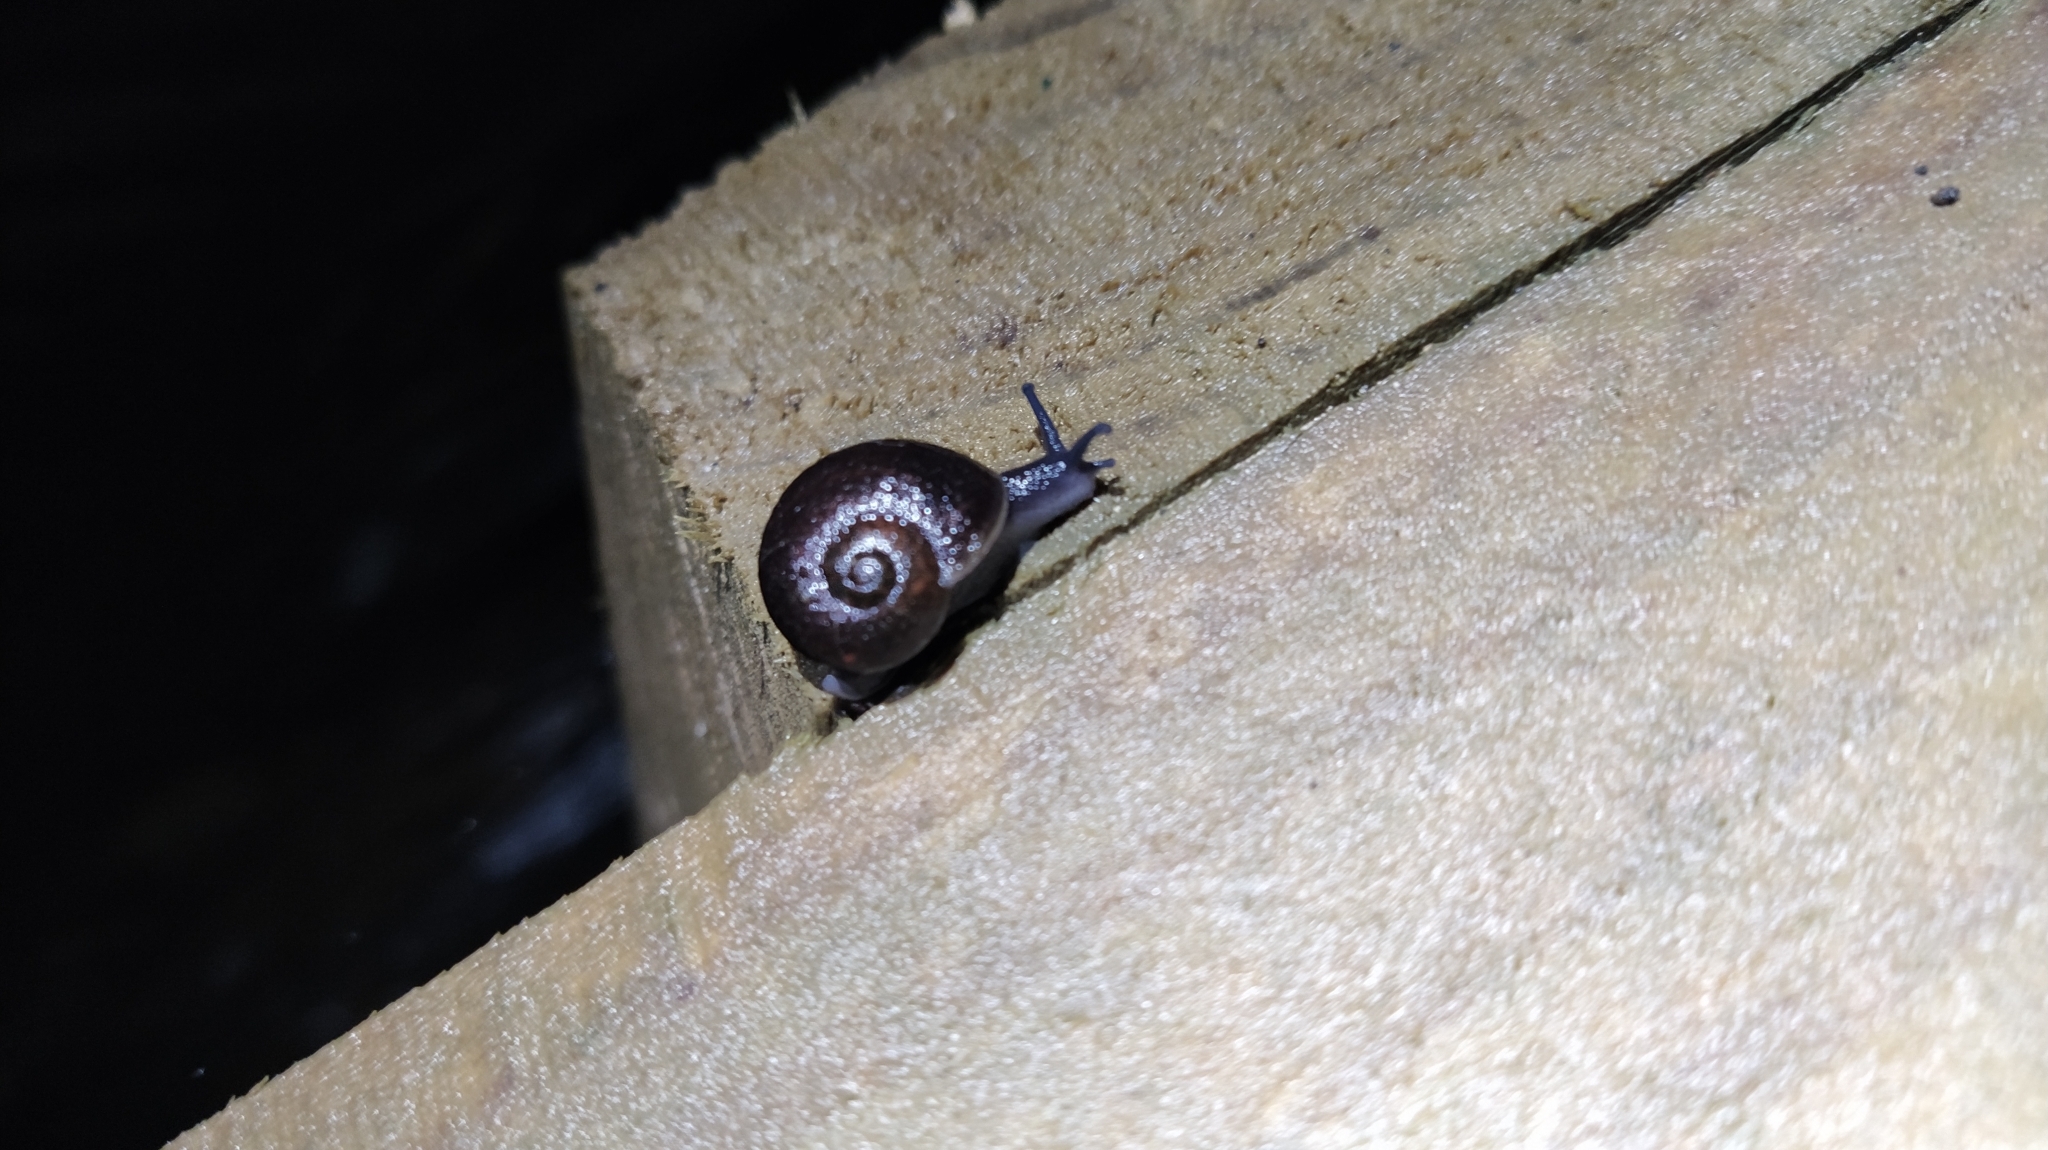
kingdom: Animalia
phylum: Mollusca
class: Gastropoda
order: Stylommatophora
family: Rhytididae
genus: Rhytida
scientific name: Rhytida greenwoodi
